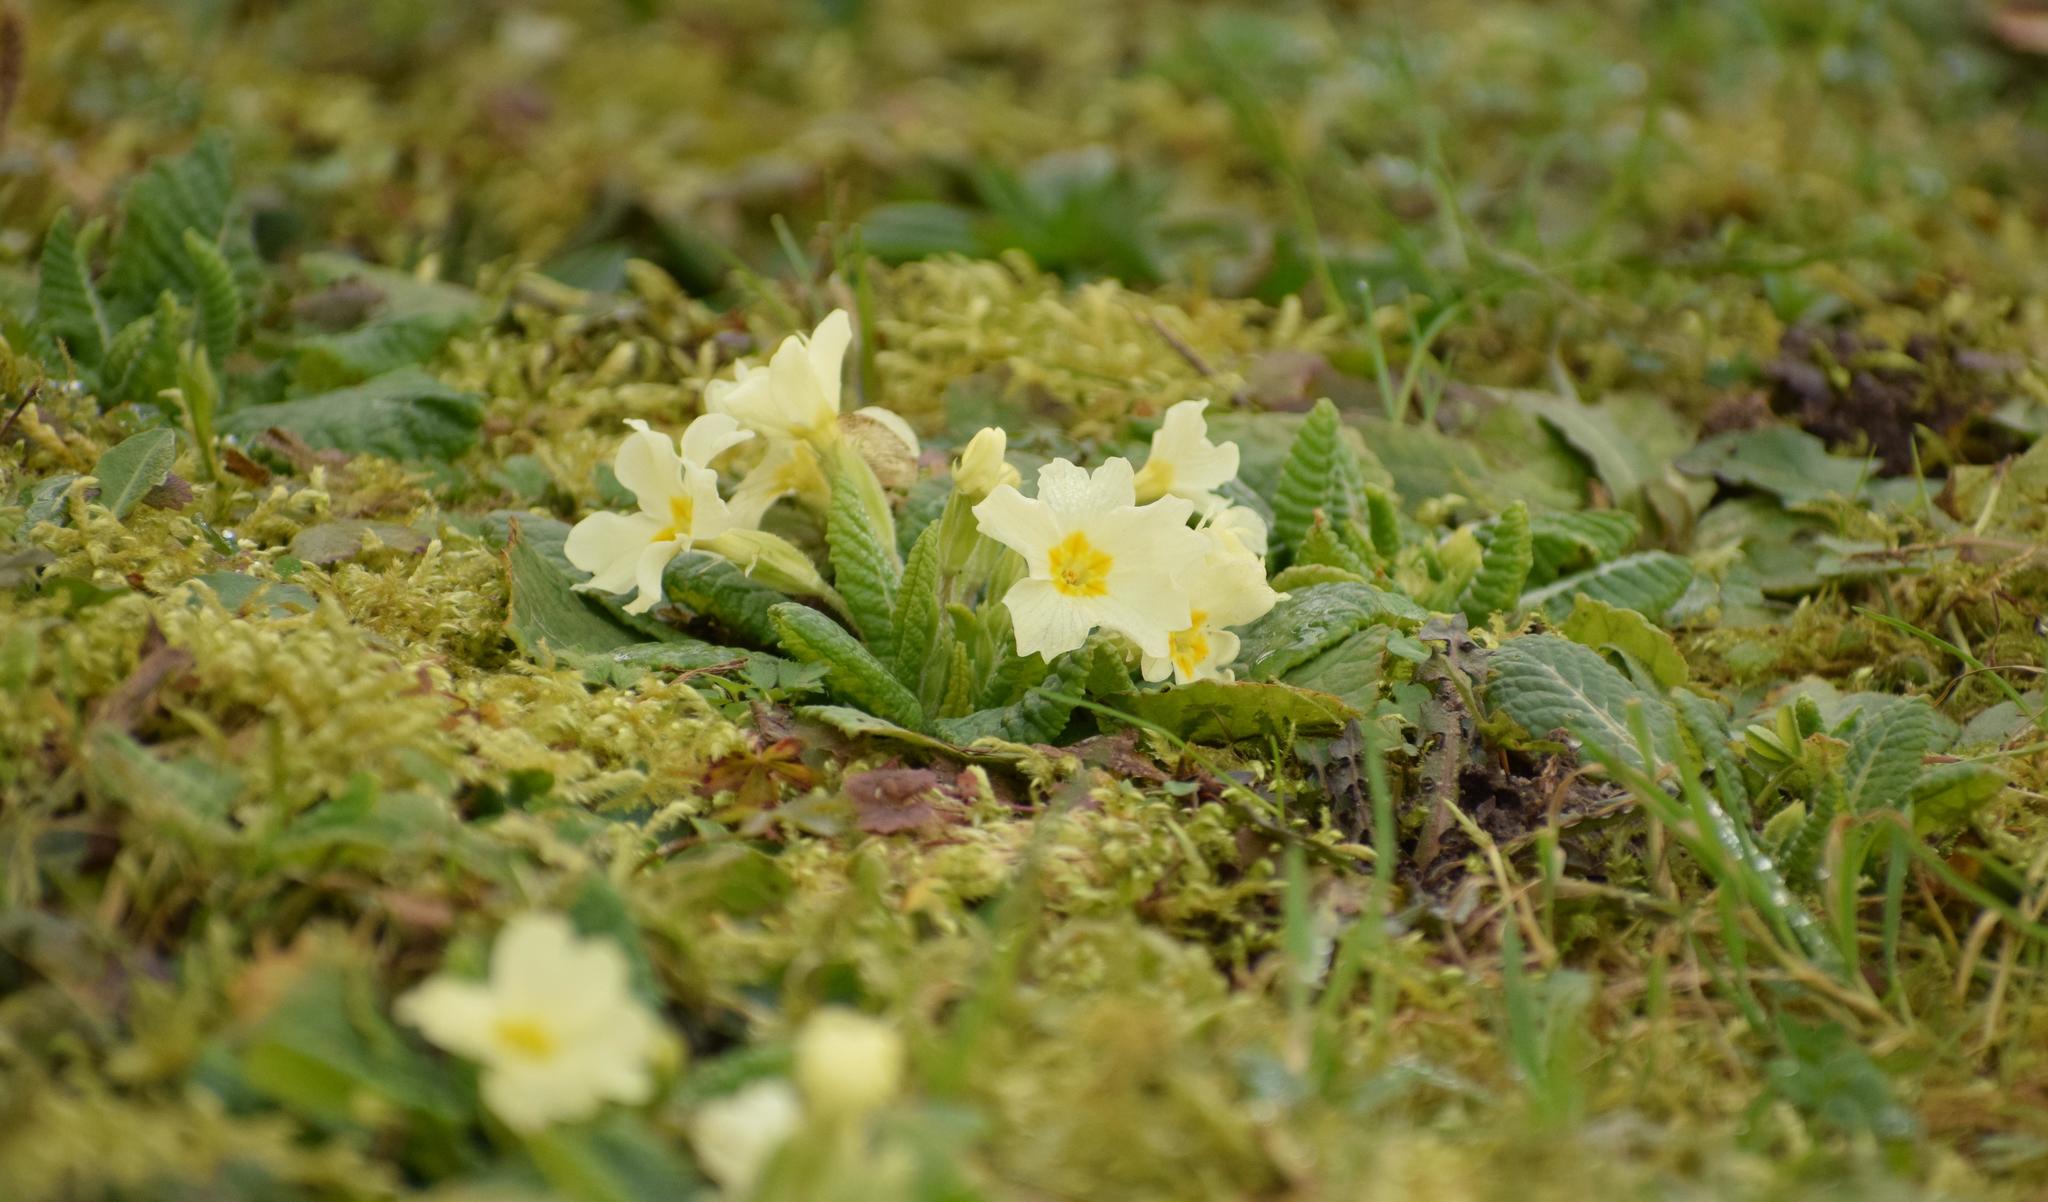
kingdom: Plantae
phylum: Tracheophyta
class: Magnoliopsida
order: Ericales
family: Primulaceae
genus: Primula
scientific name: Primula vulgaris
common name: Primrose
